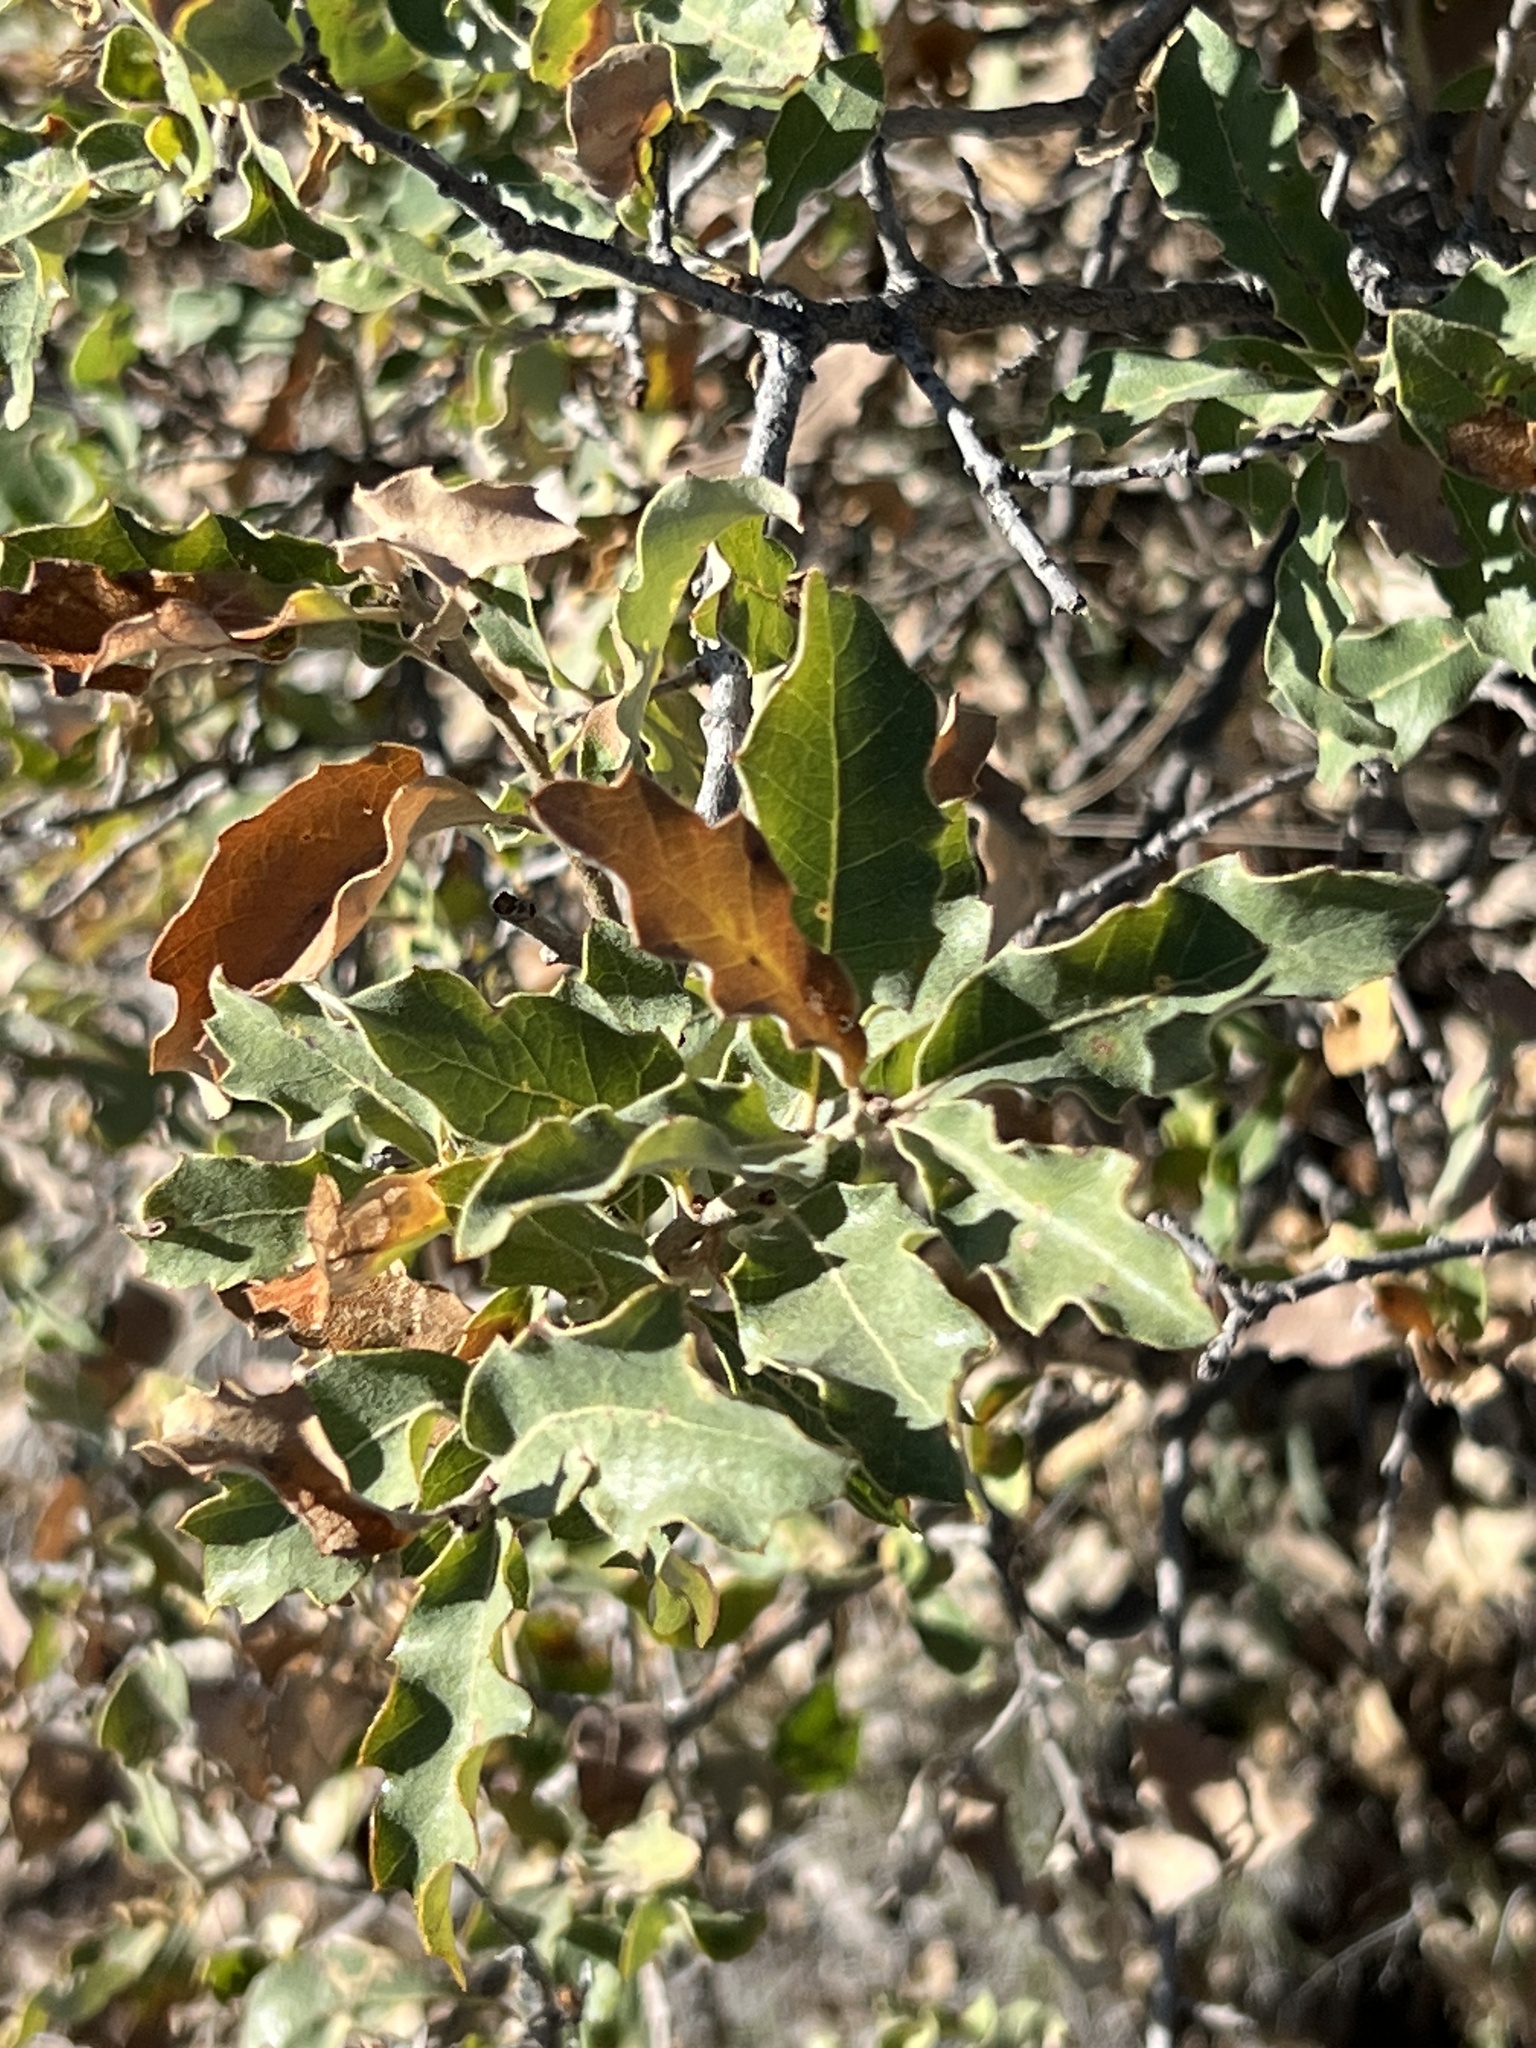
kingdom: Plantae
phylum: Tracheophyta
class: Magnoliopsida
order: Fagales
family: Fagaceae
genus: Quercus
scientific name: Quercus vaseyana
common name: Sandpaper oak
